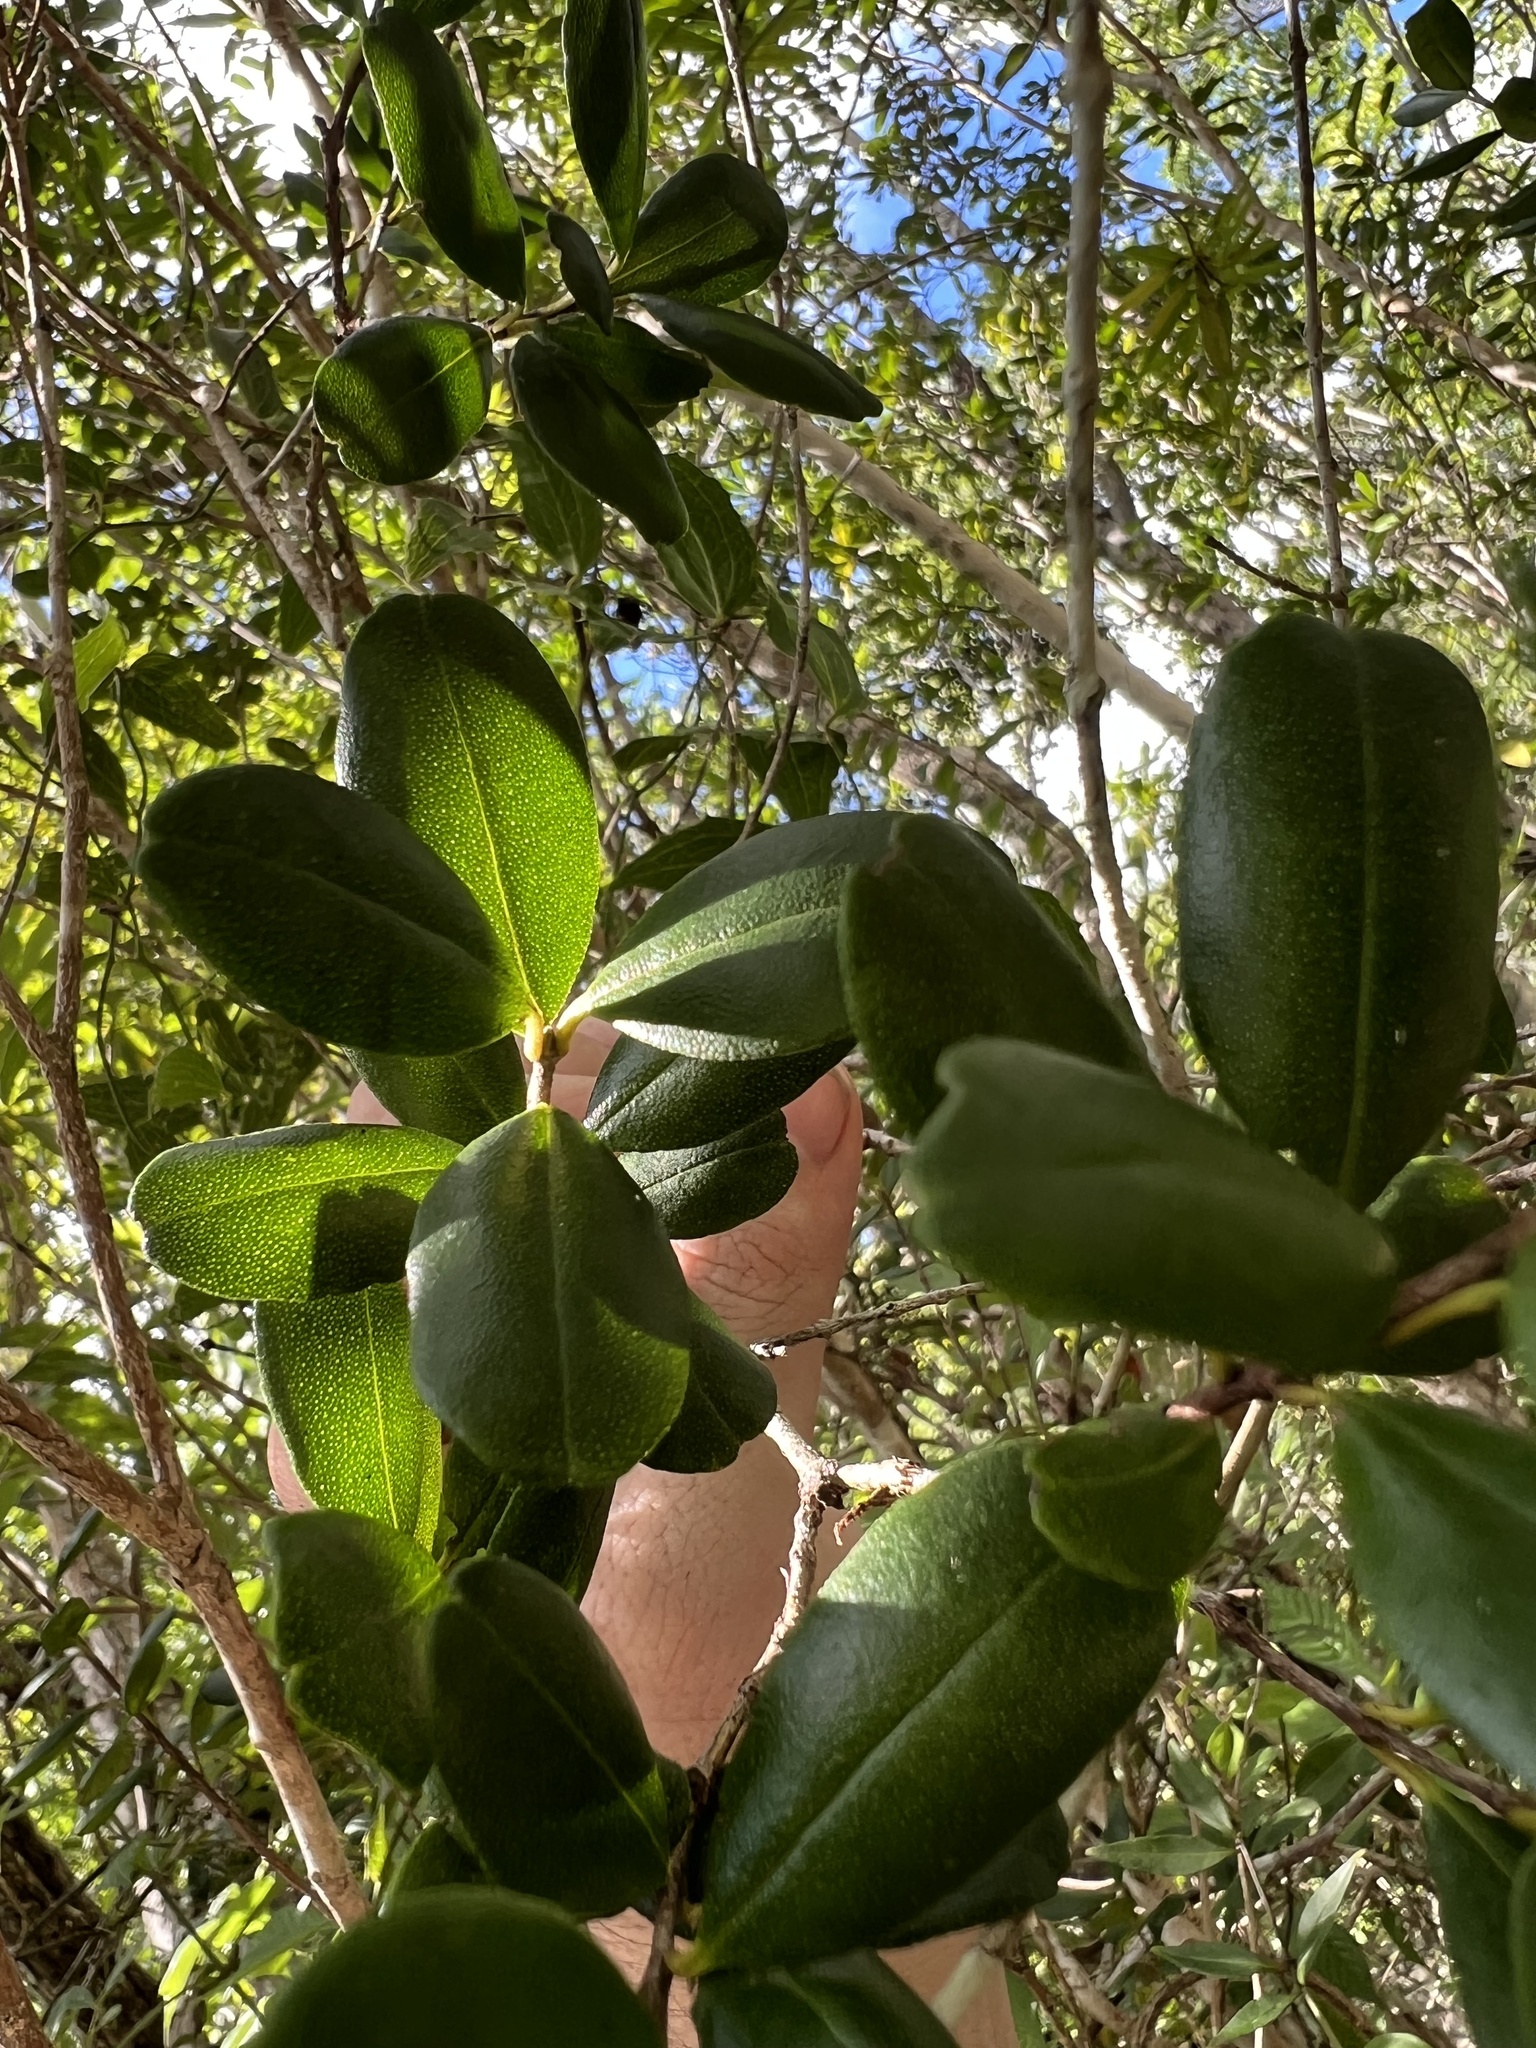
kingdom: Plantae
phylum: Tracheophyta
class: Magnoliopsida
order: Myrtales
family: Myrtaceae
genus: Myrcianthes
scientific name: Myrcianthes fragrans
